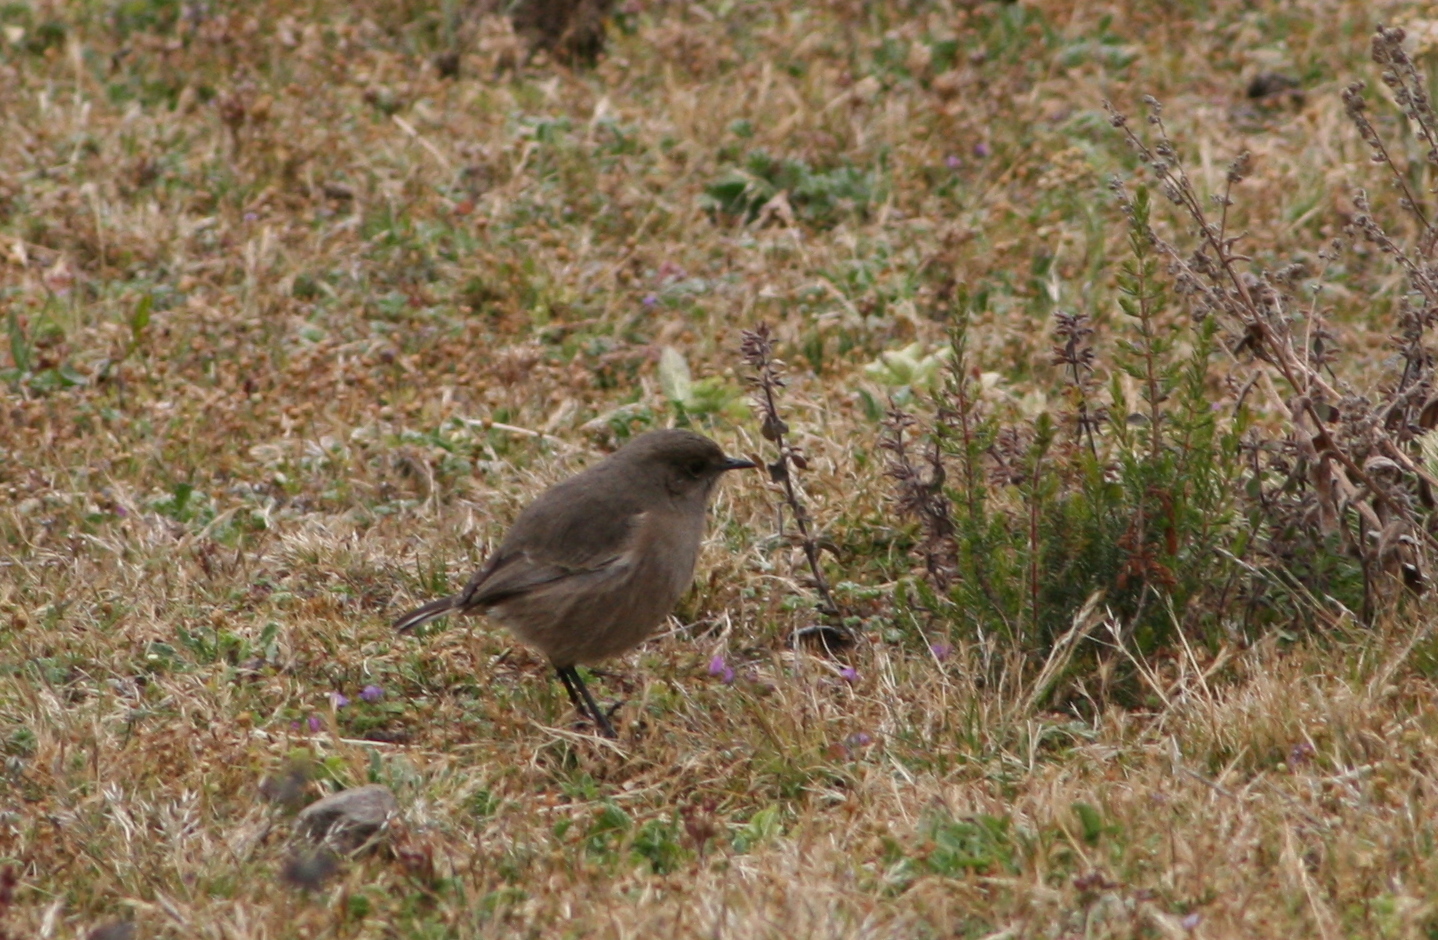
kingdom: Animalia
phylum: Chordata
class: Aves
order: Passeriformes
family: Muscicapidae
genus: Pinarochroa
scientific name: Pinarochroa sordida
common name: Moorland chat
